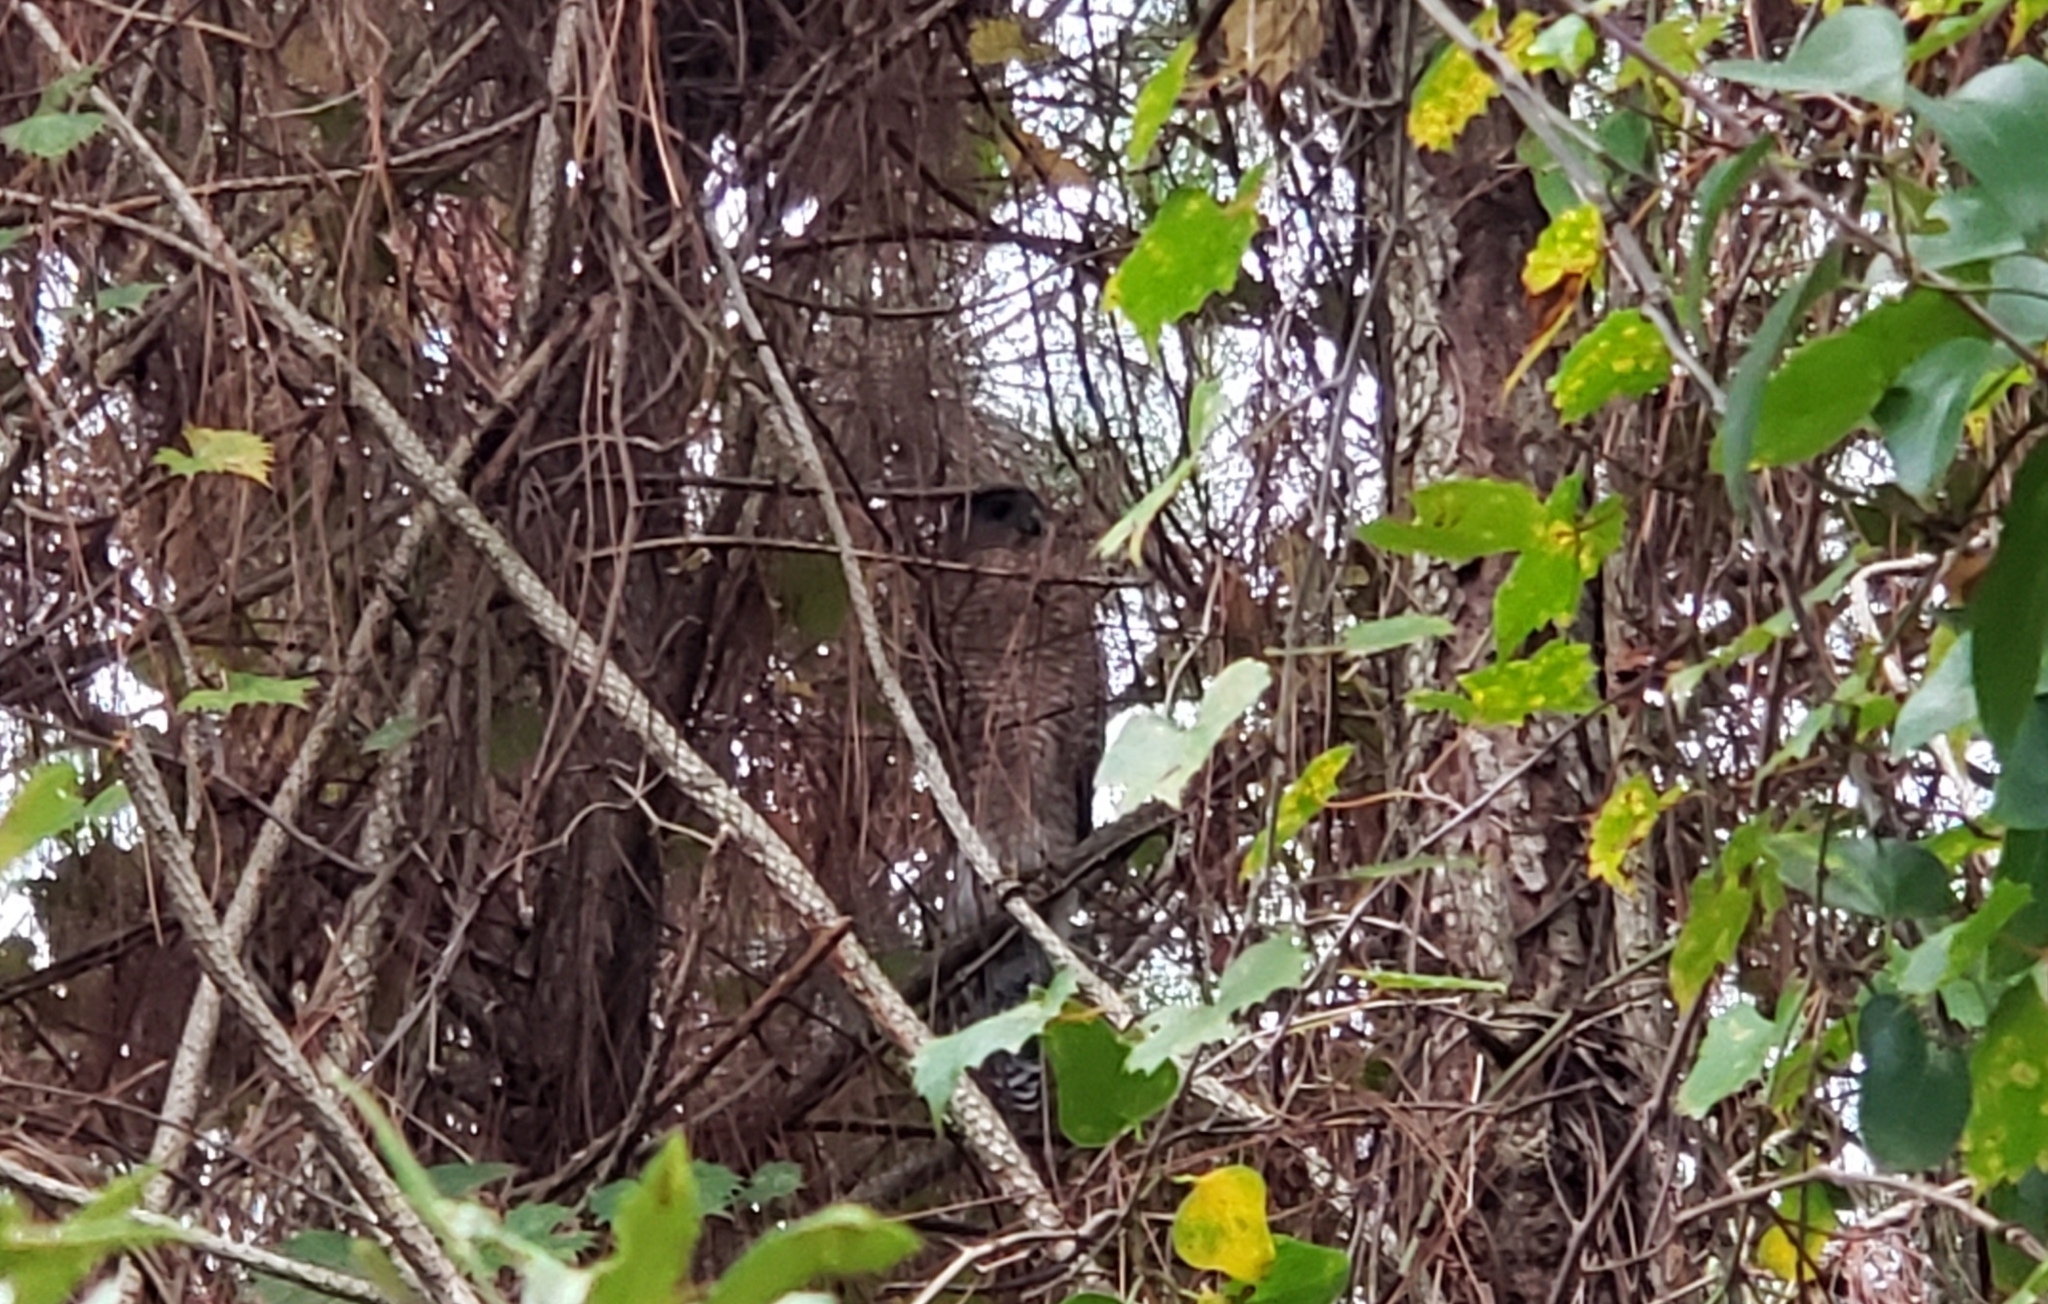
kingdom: Animalia
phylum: Chordata
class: Aves
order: Accipitriformes
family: Accipitridae
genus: Accipiter
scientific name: Accipiter cooperii
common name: Cooper's hawk
